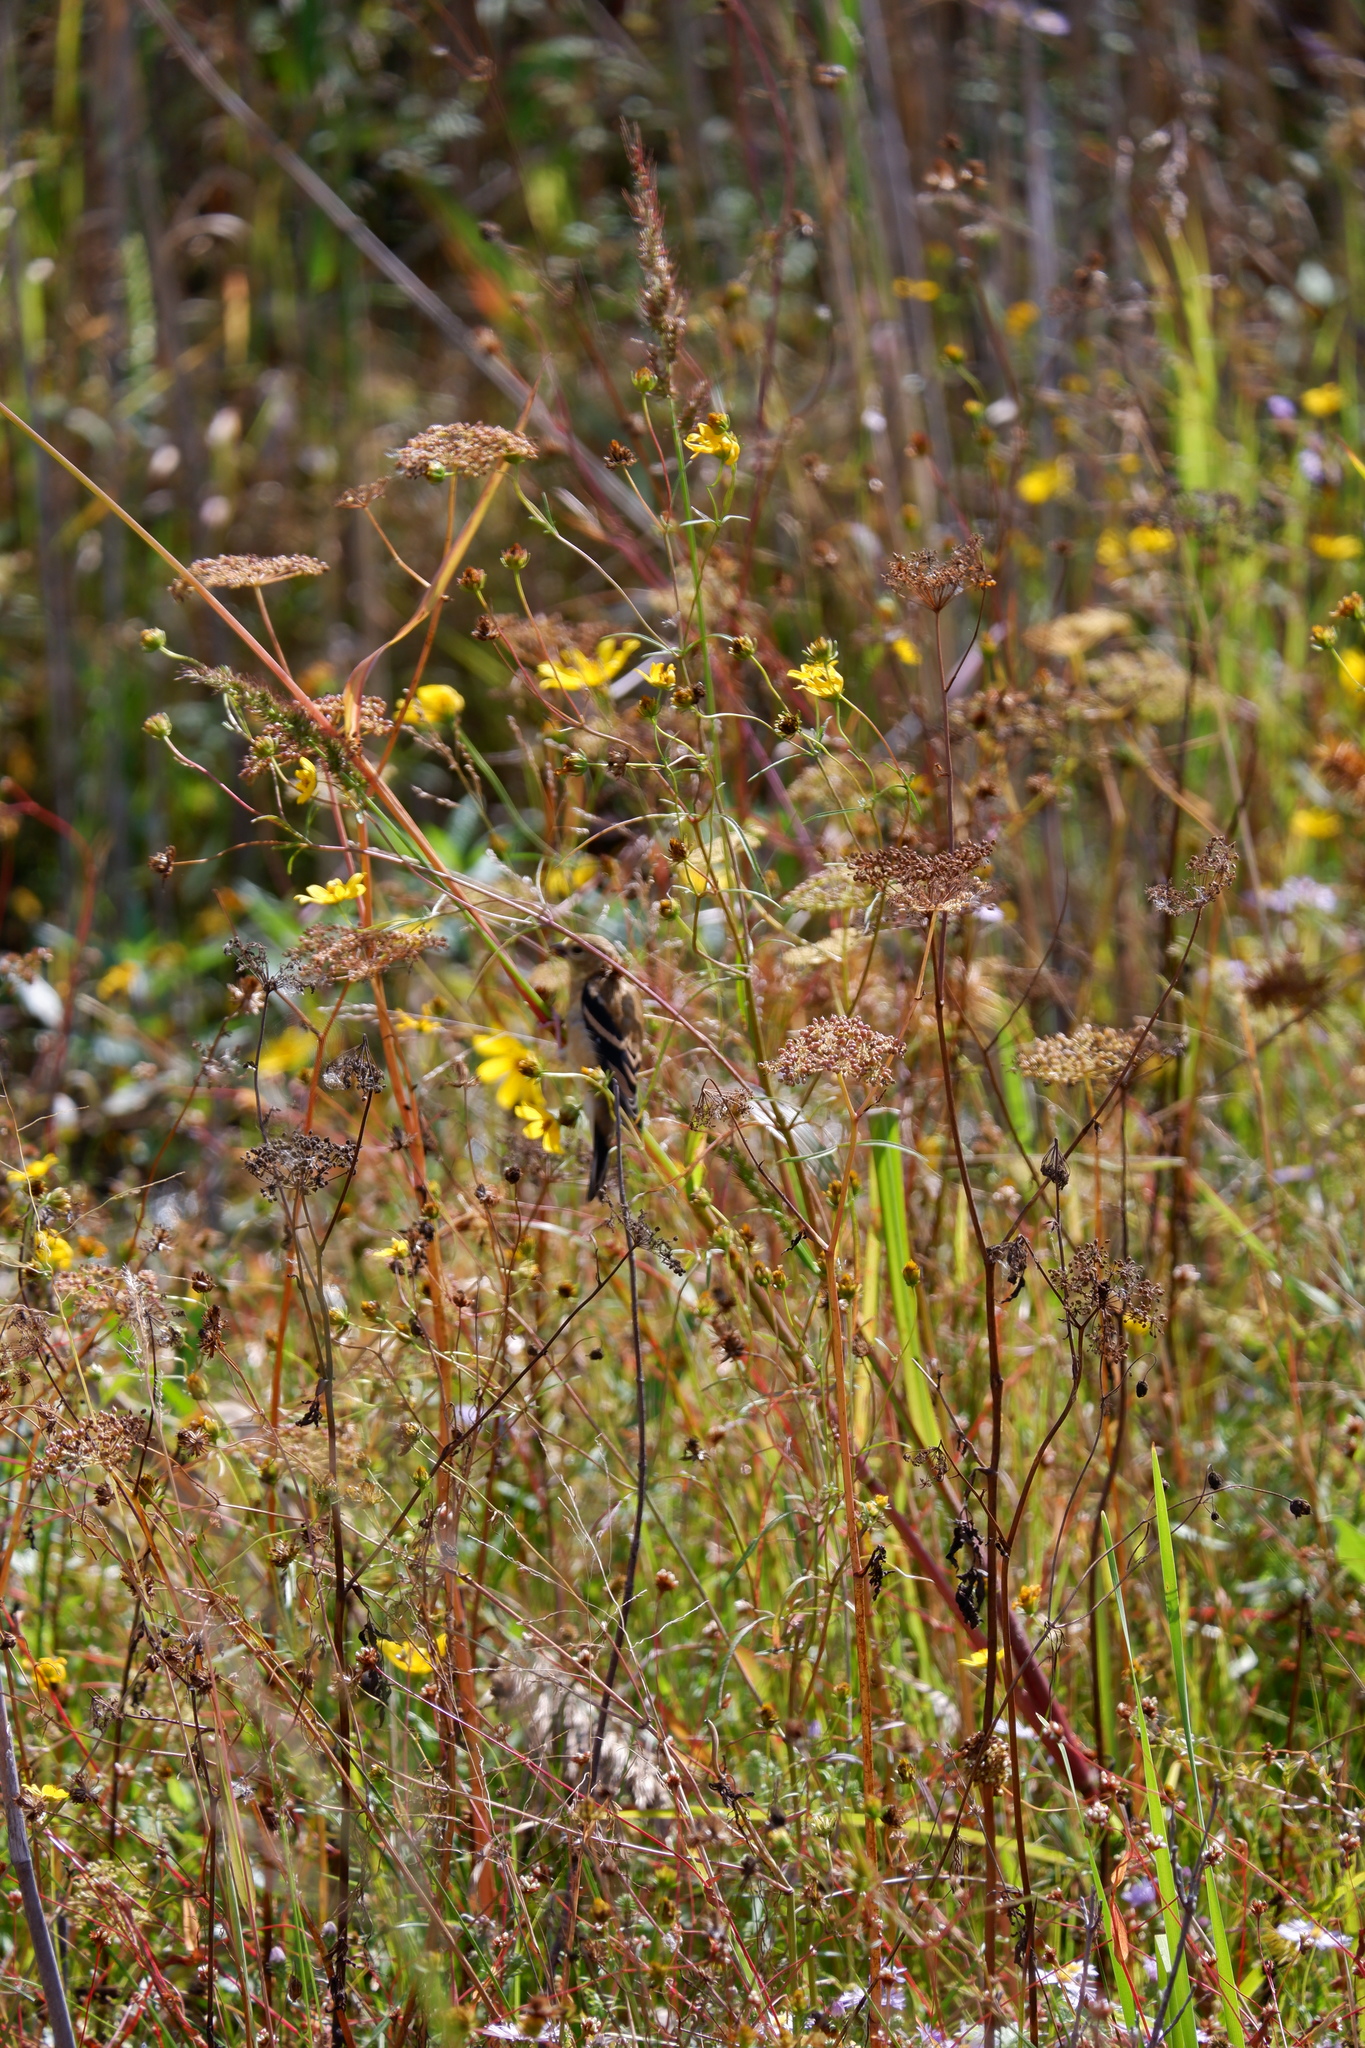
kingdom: Animalia
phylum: Chordata
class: Aves
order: Passeriformes
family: Fringillidae
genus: Spinus
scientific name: Spinus tristis
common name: American goldfinch
